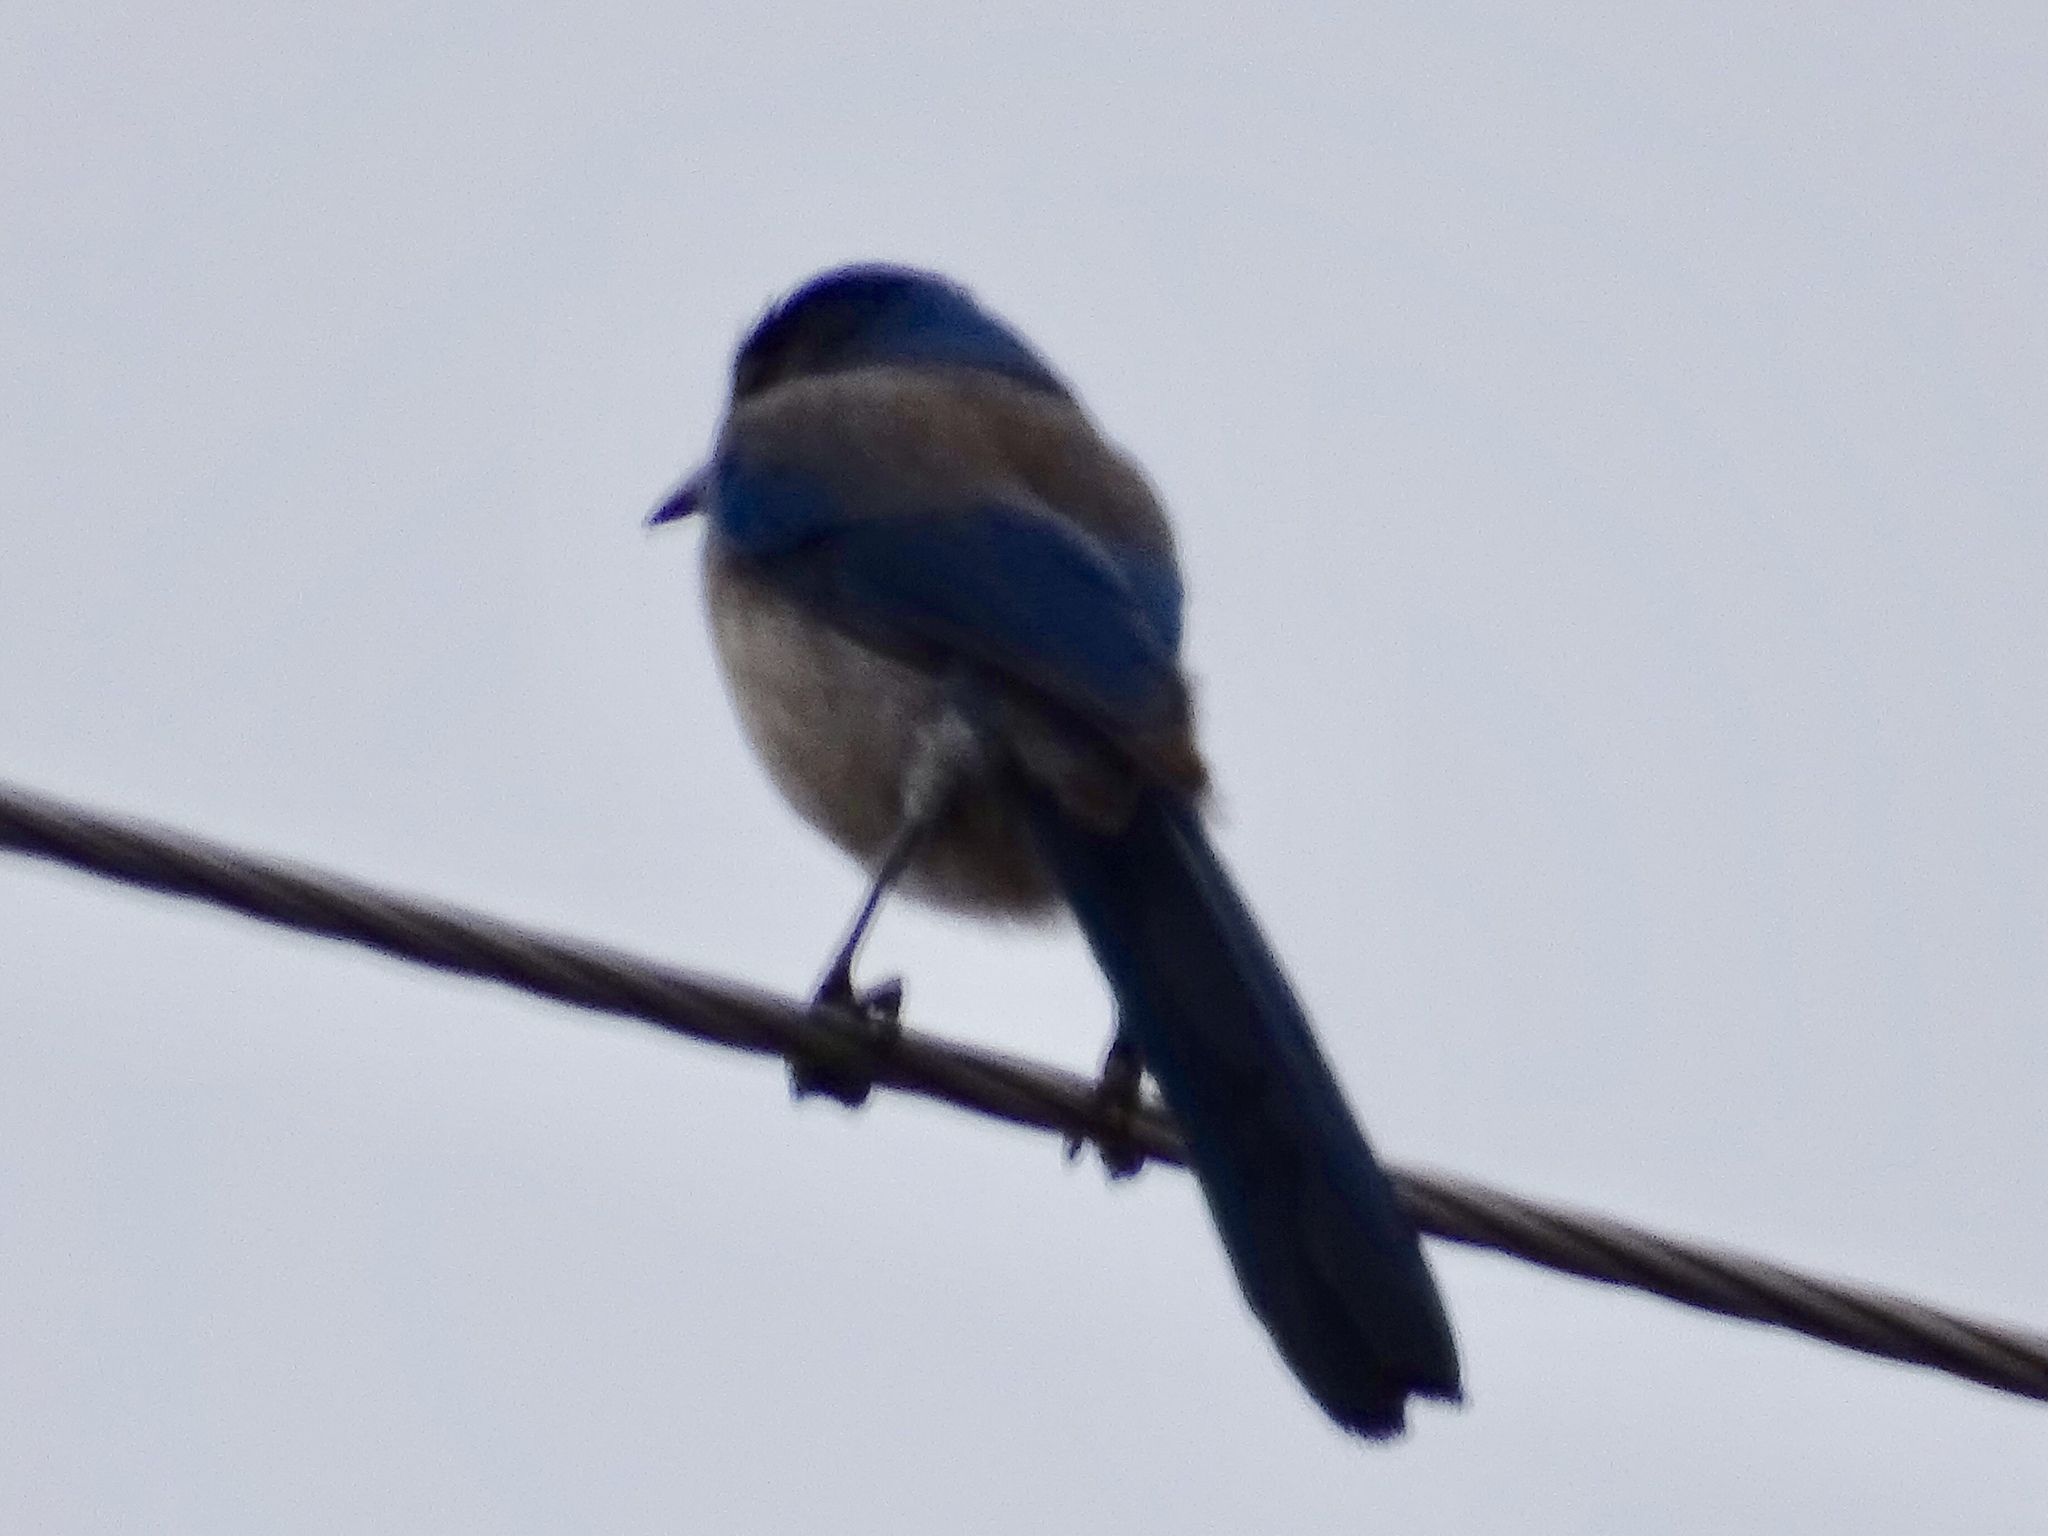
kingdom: Animalia
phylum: Chordata
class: Aves
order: Passeriformes
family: Corvidae
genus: Aphelocoma
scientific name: Aphelocoma woodhouseii
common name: Woodhouse's scrub-jay
